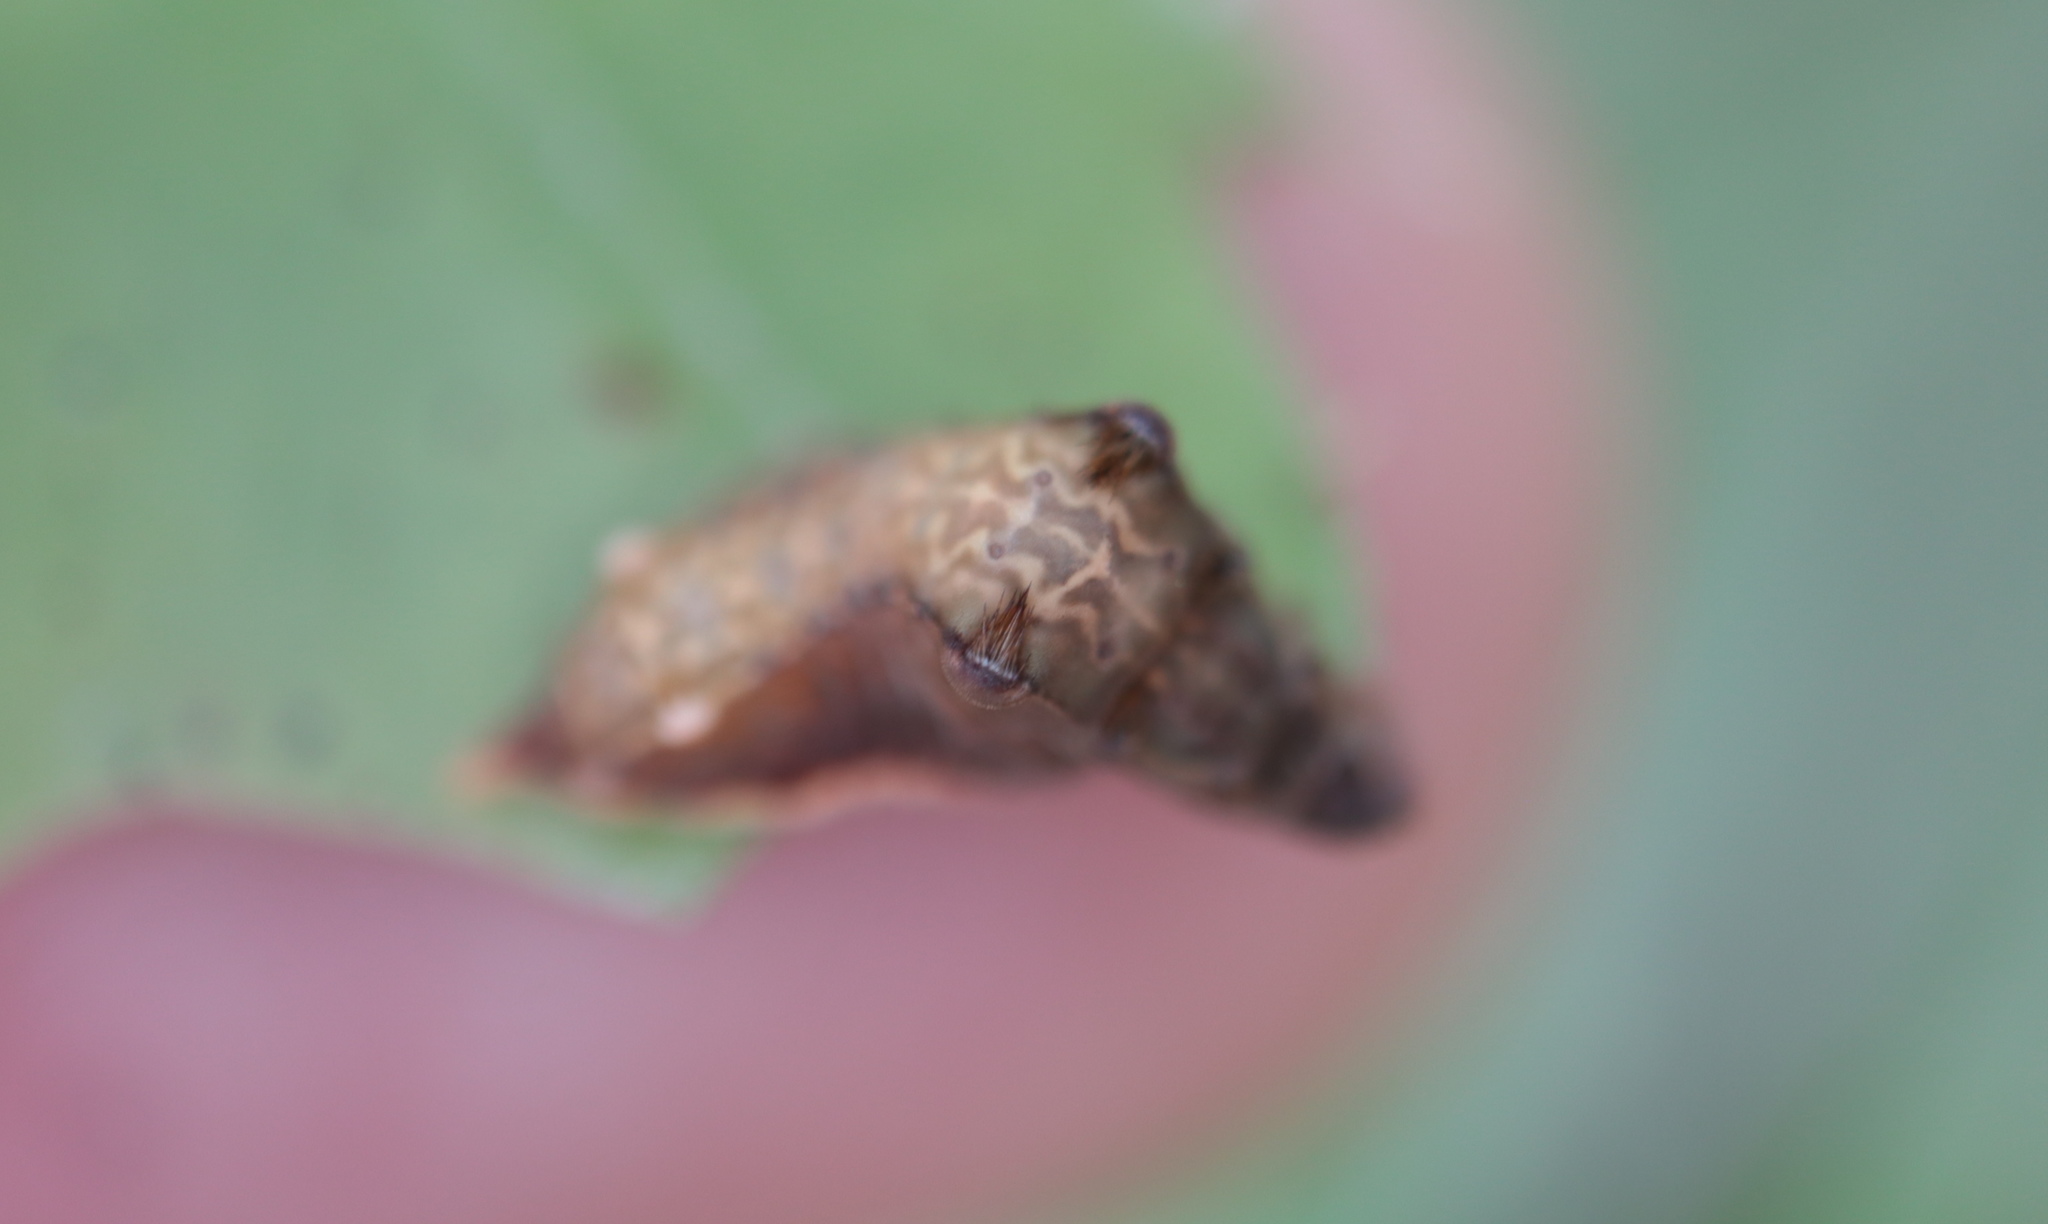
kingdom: Animalia
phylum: Arthropoda
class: Insecta
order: Lepidoptera
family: Limacodidae
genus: Parasa
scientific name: Parasa chloris
